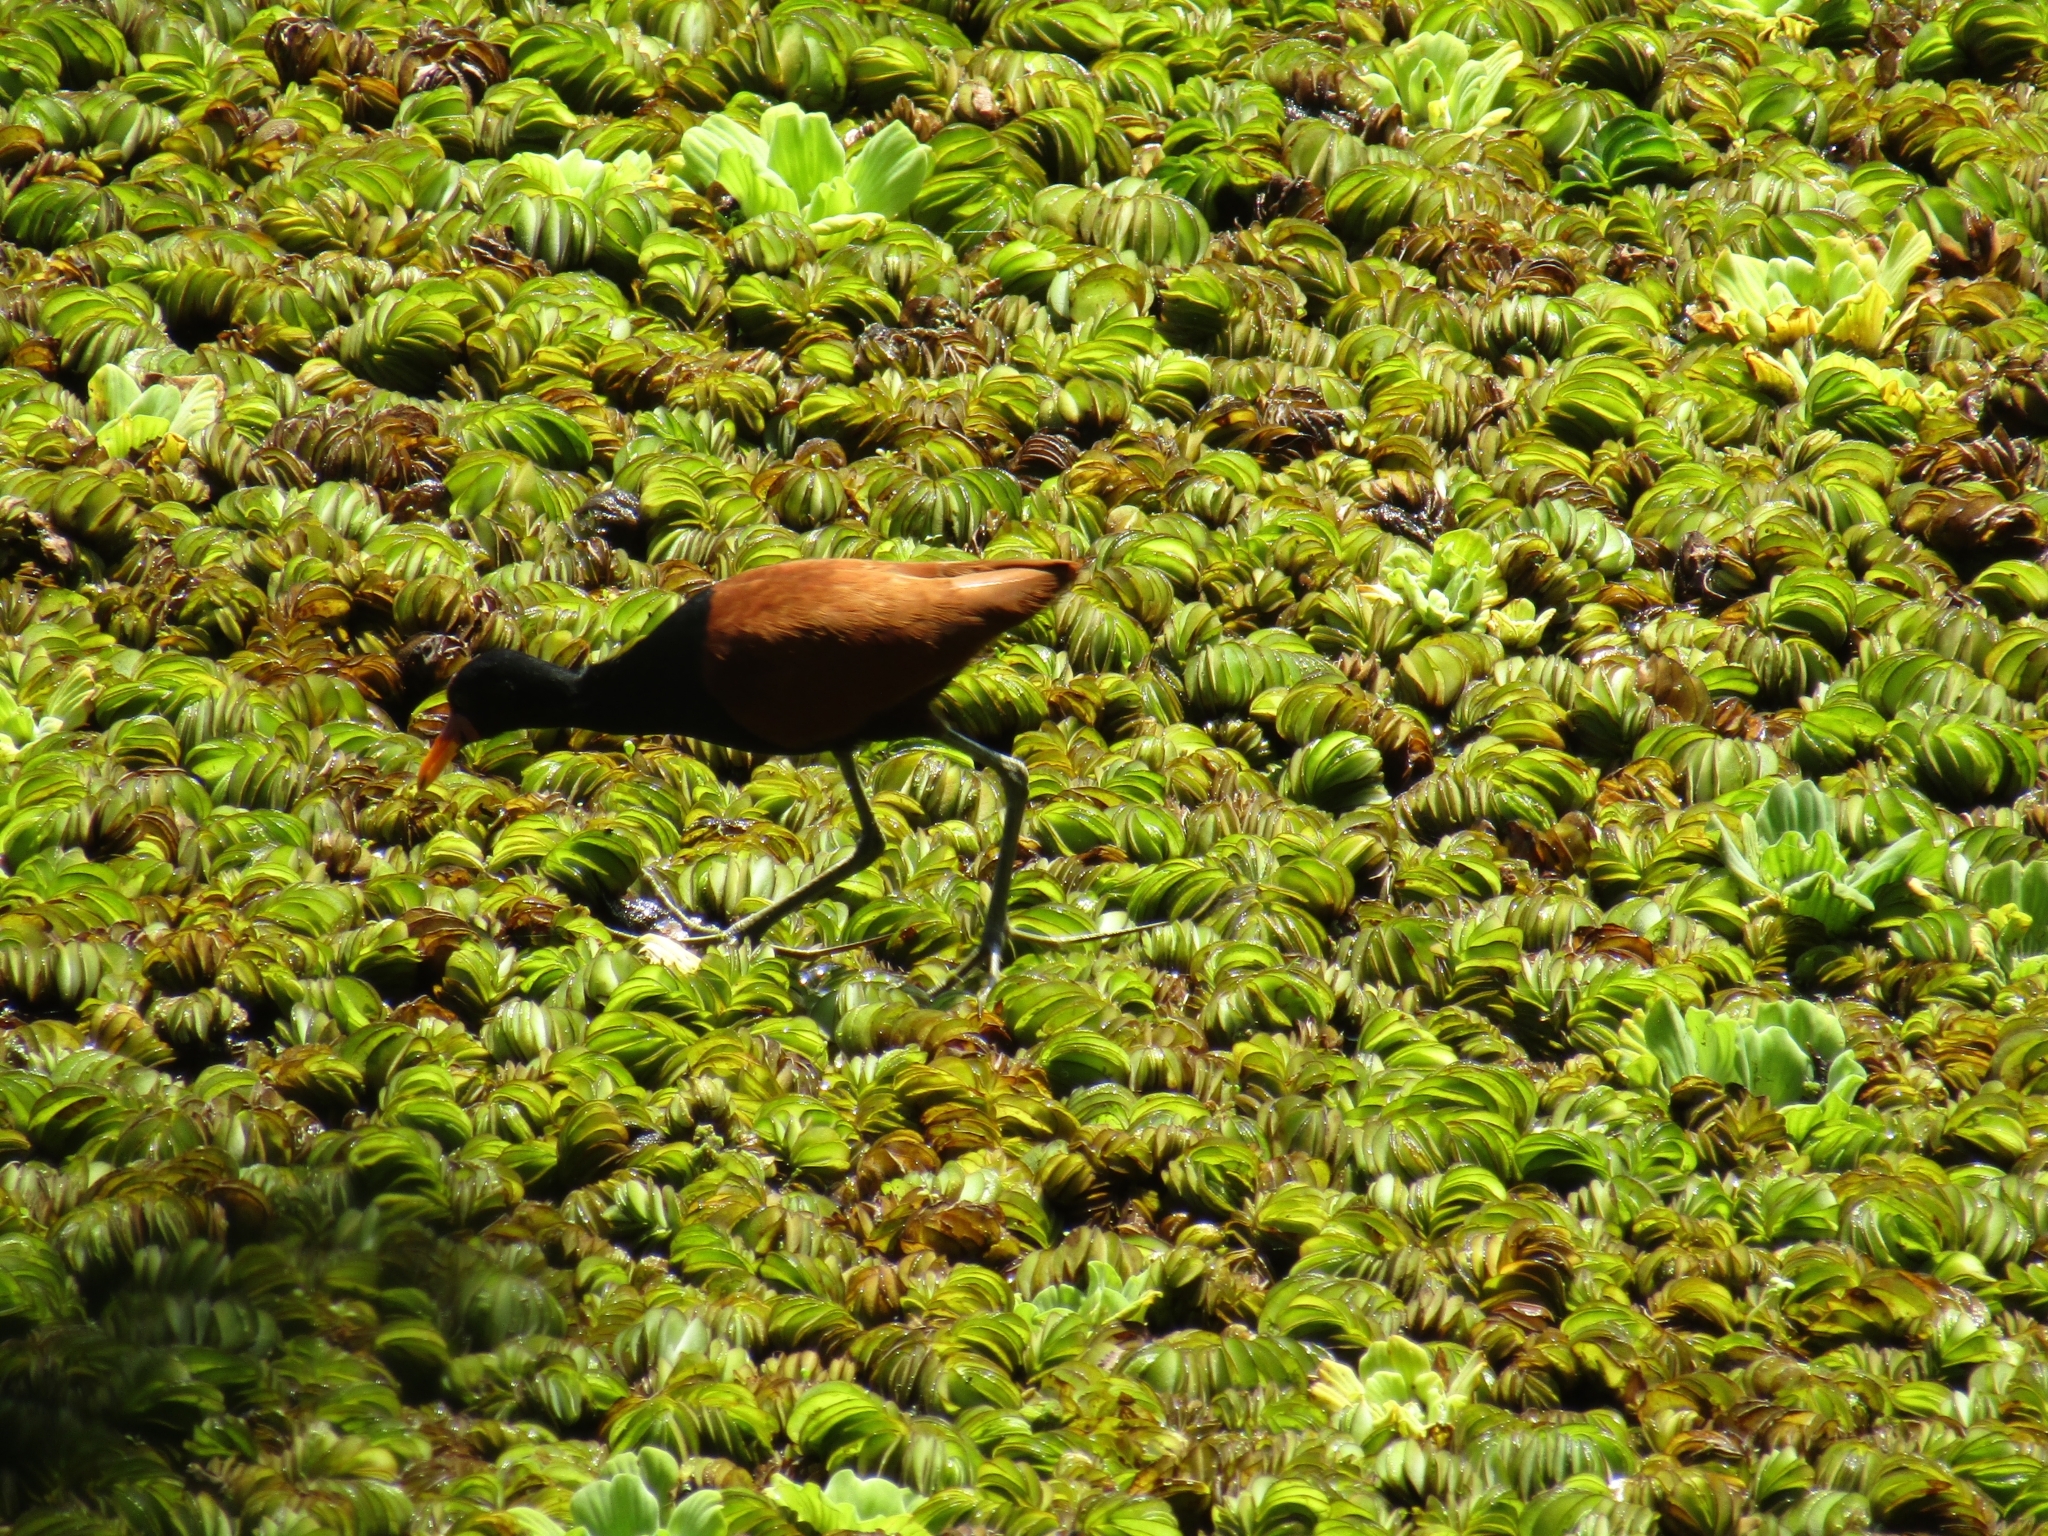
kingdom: Animalia
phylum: Chordata
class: Aves
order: Charadriiformes
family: Jacanidae
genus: Jacana
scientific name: Jacana jacana
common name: Wattled jacana
